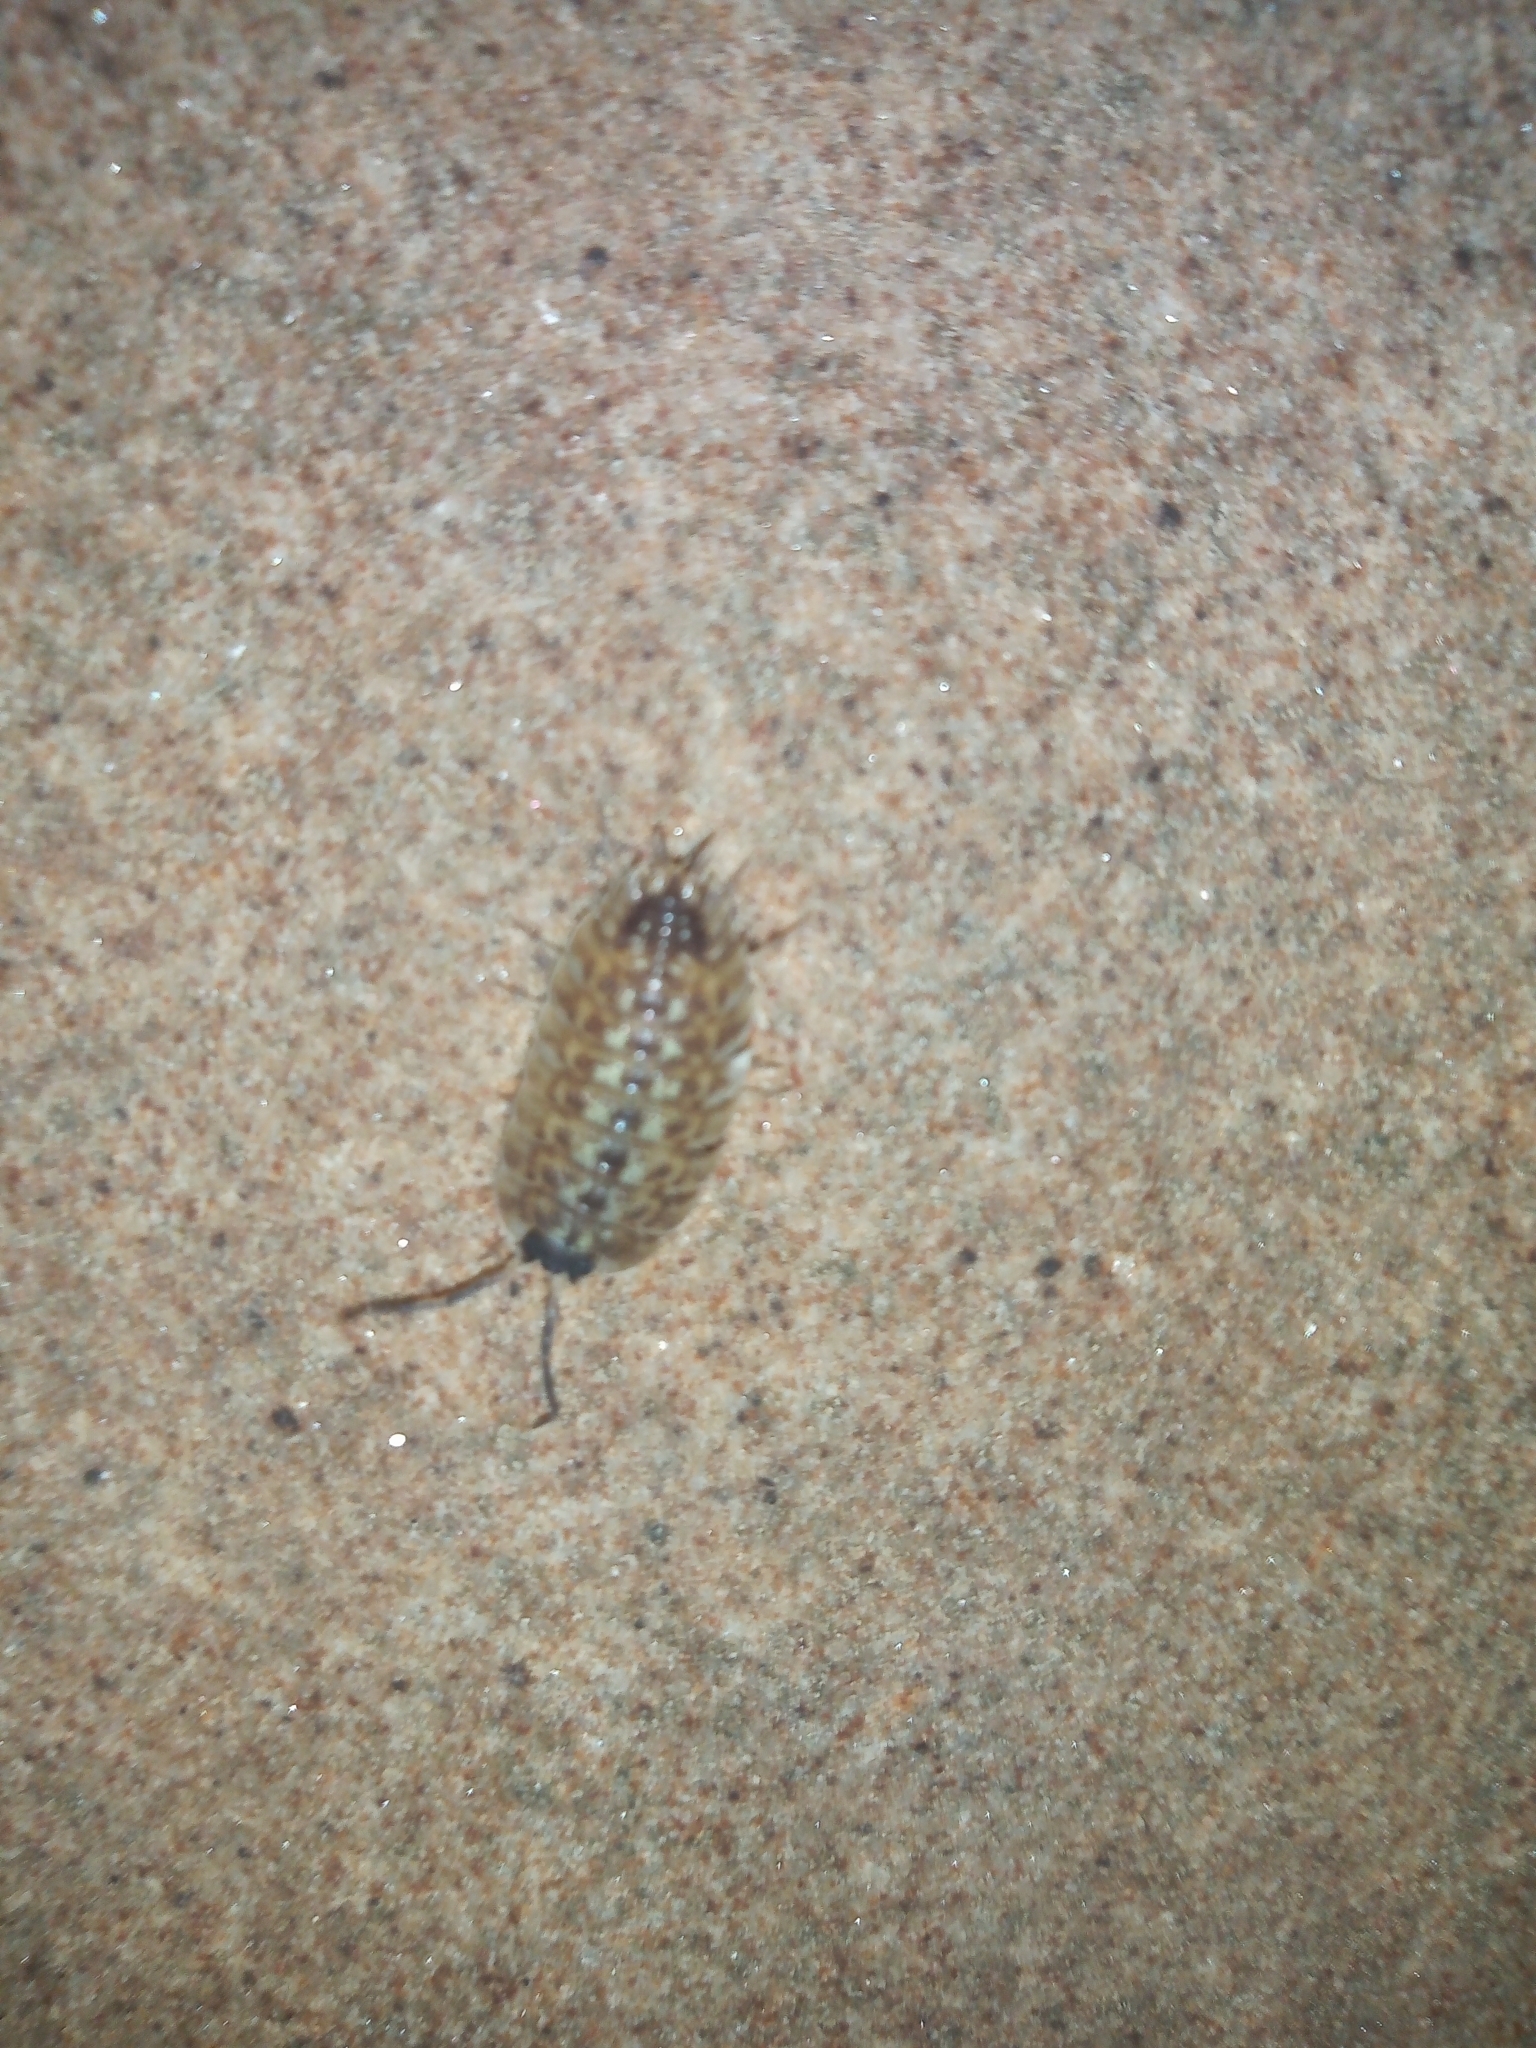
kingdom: Animalia
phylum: Arthropoda
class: Malacostraca
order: Isopoda
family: Porcellionidae
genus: Porcellio
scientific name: Porcellio spinicornis
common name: Painted woodlouse
